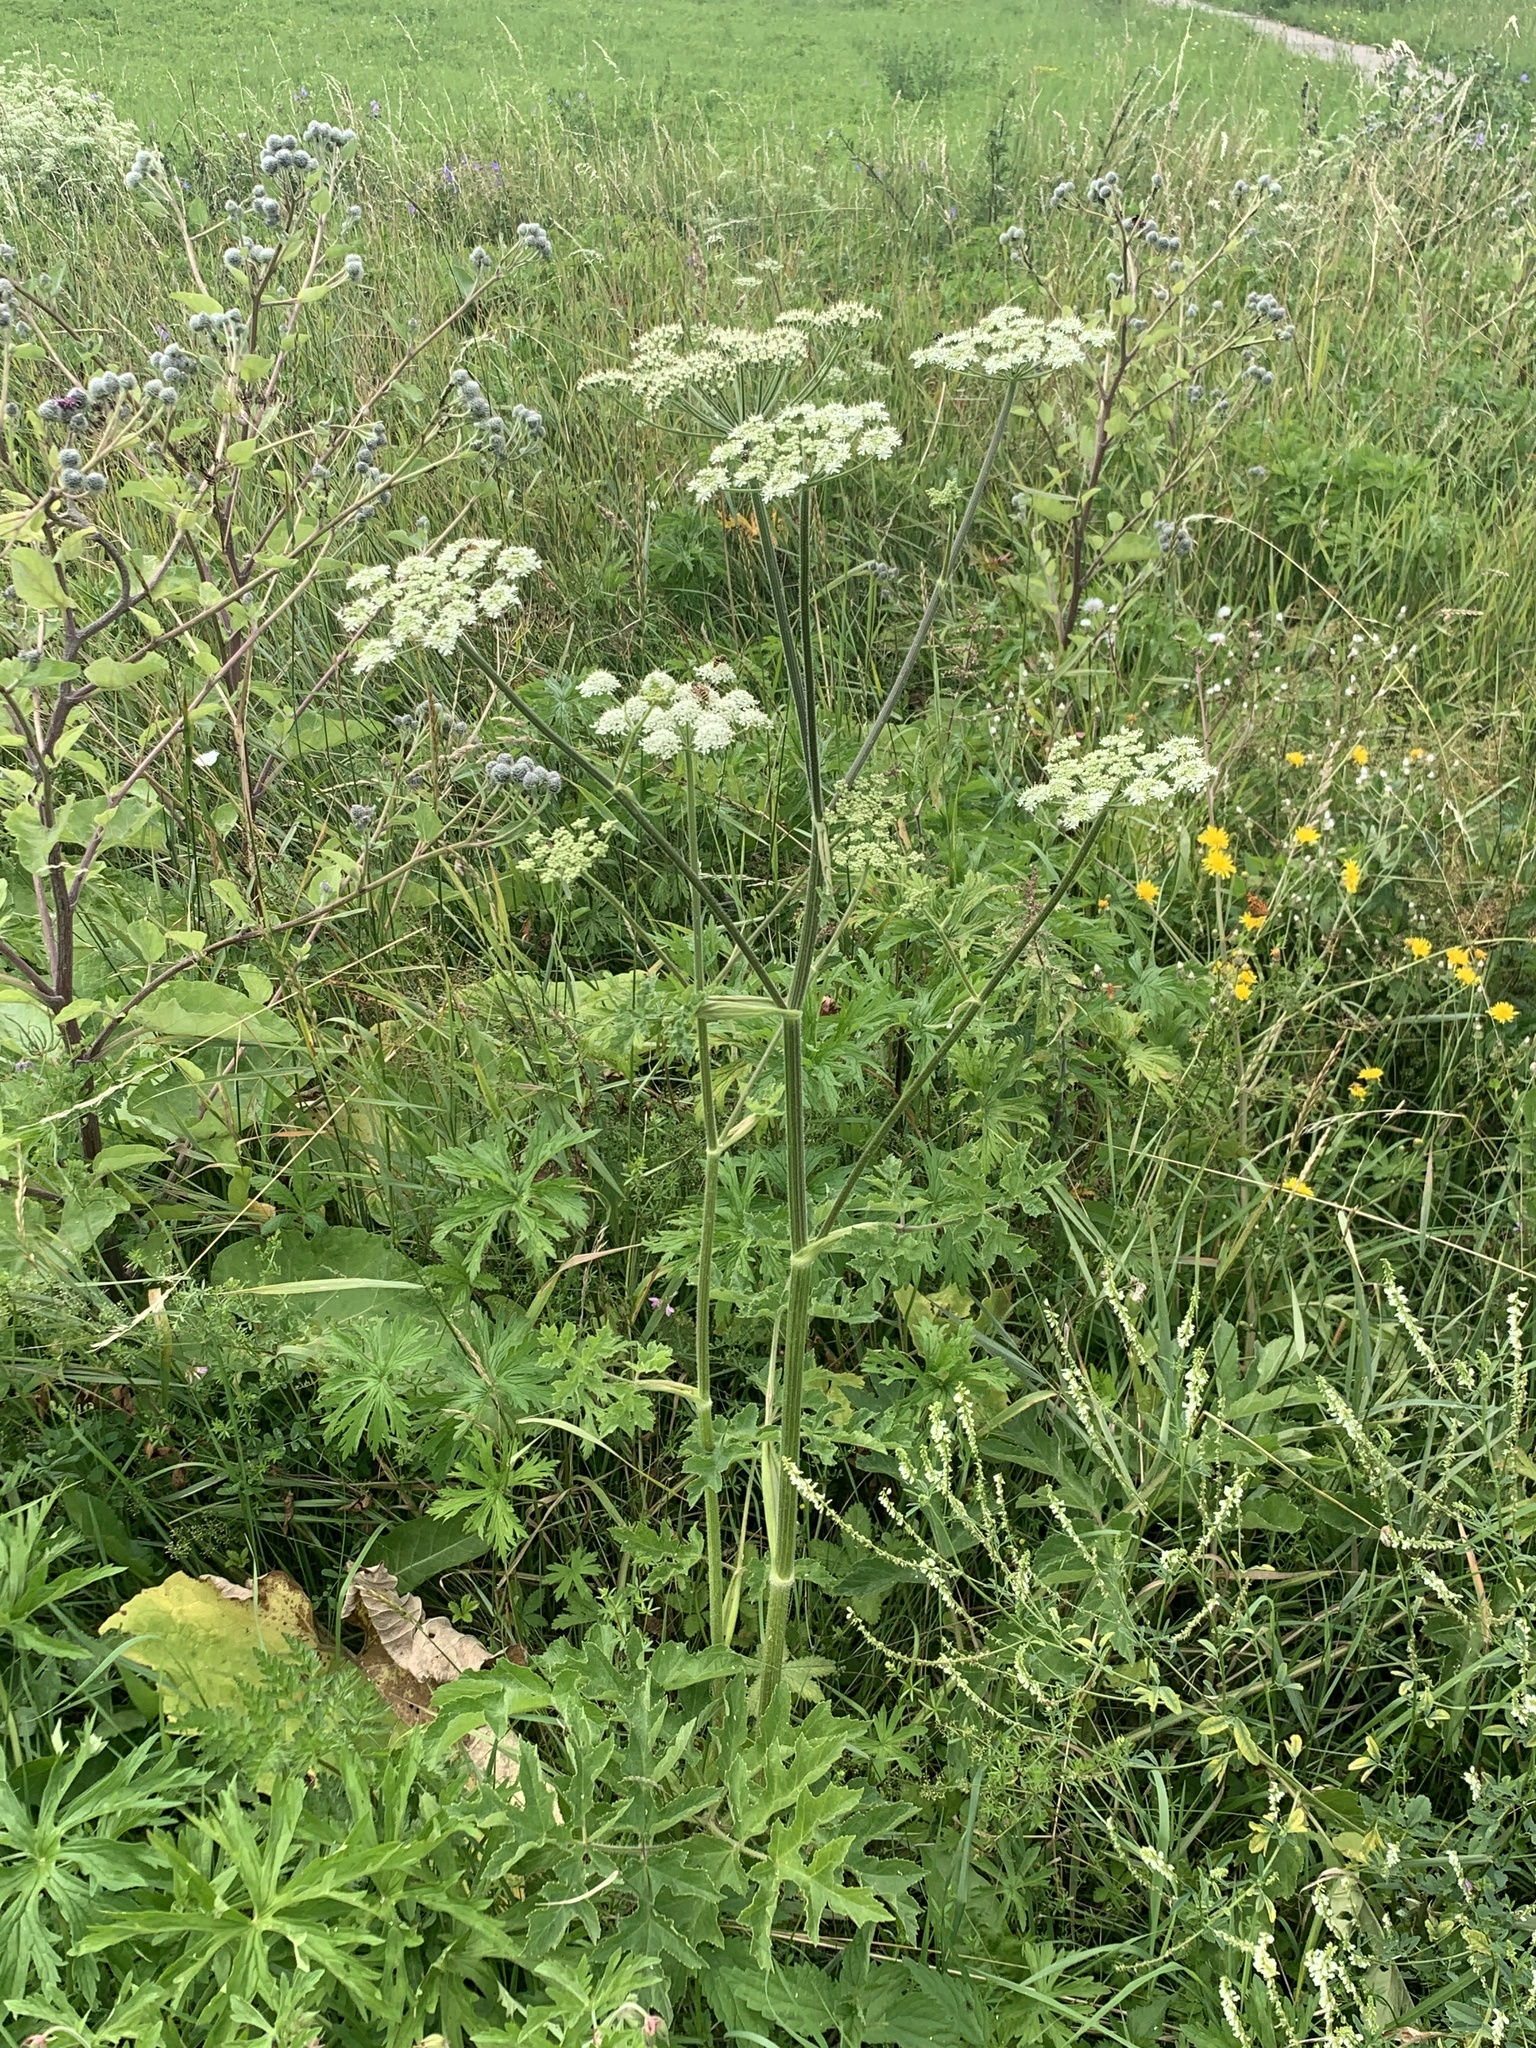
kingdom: Plantae
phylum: Tracheophyta
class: Magnoliopsida
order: Apiales
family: Apiaceae
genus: Heracleum
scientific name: Heracleum sphondylium
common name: Hogweed
